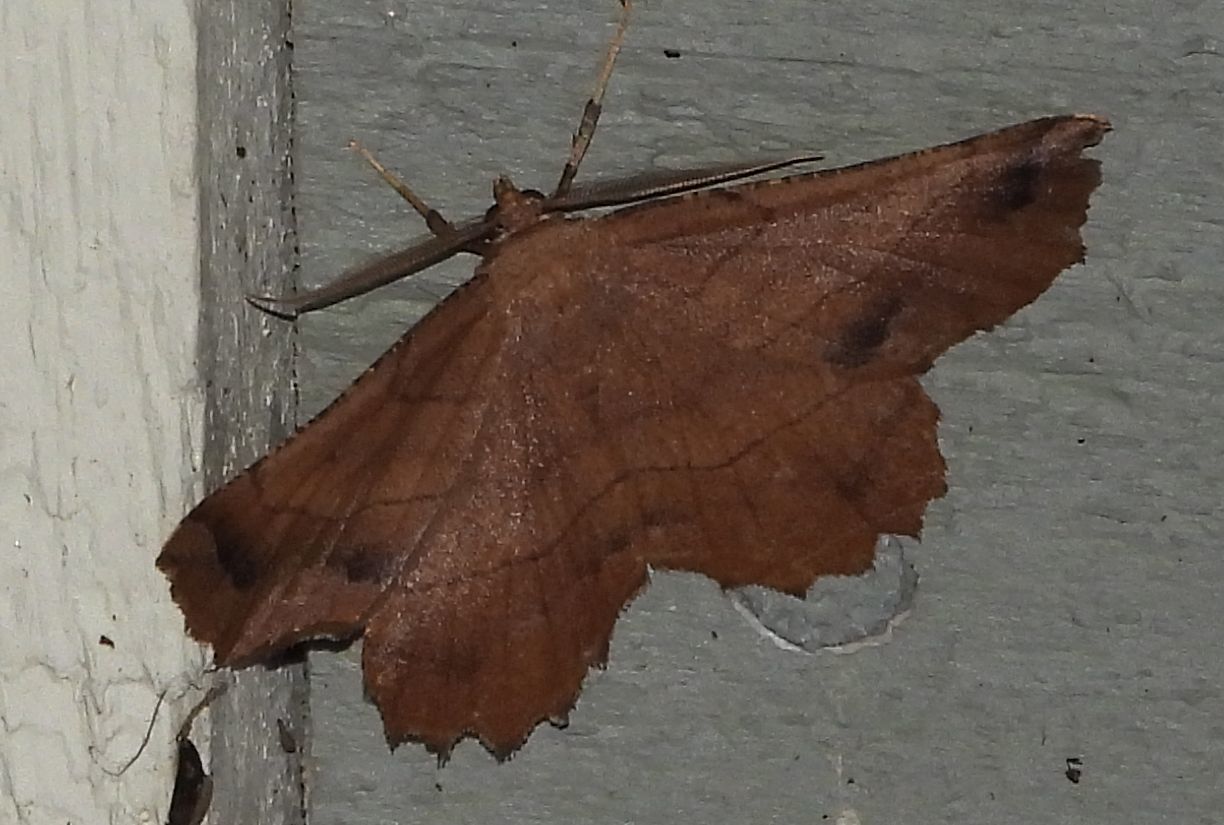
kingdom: Animalia
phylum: Arthropoda
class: Insecta
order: Lepidoptera
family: Geometridae
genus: Euchlaena
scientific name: Euchlaena johnsonaria
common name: Johnson's euchlaena
